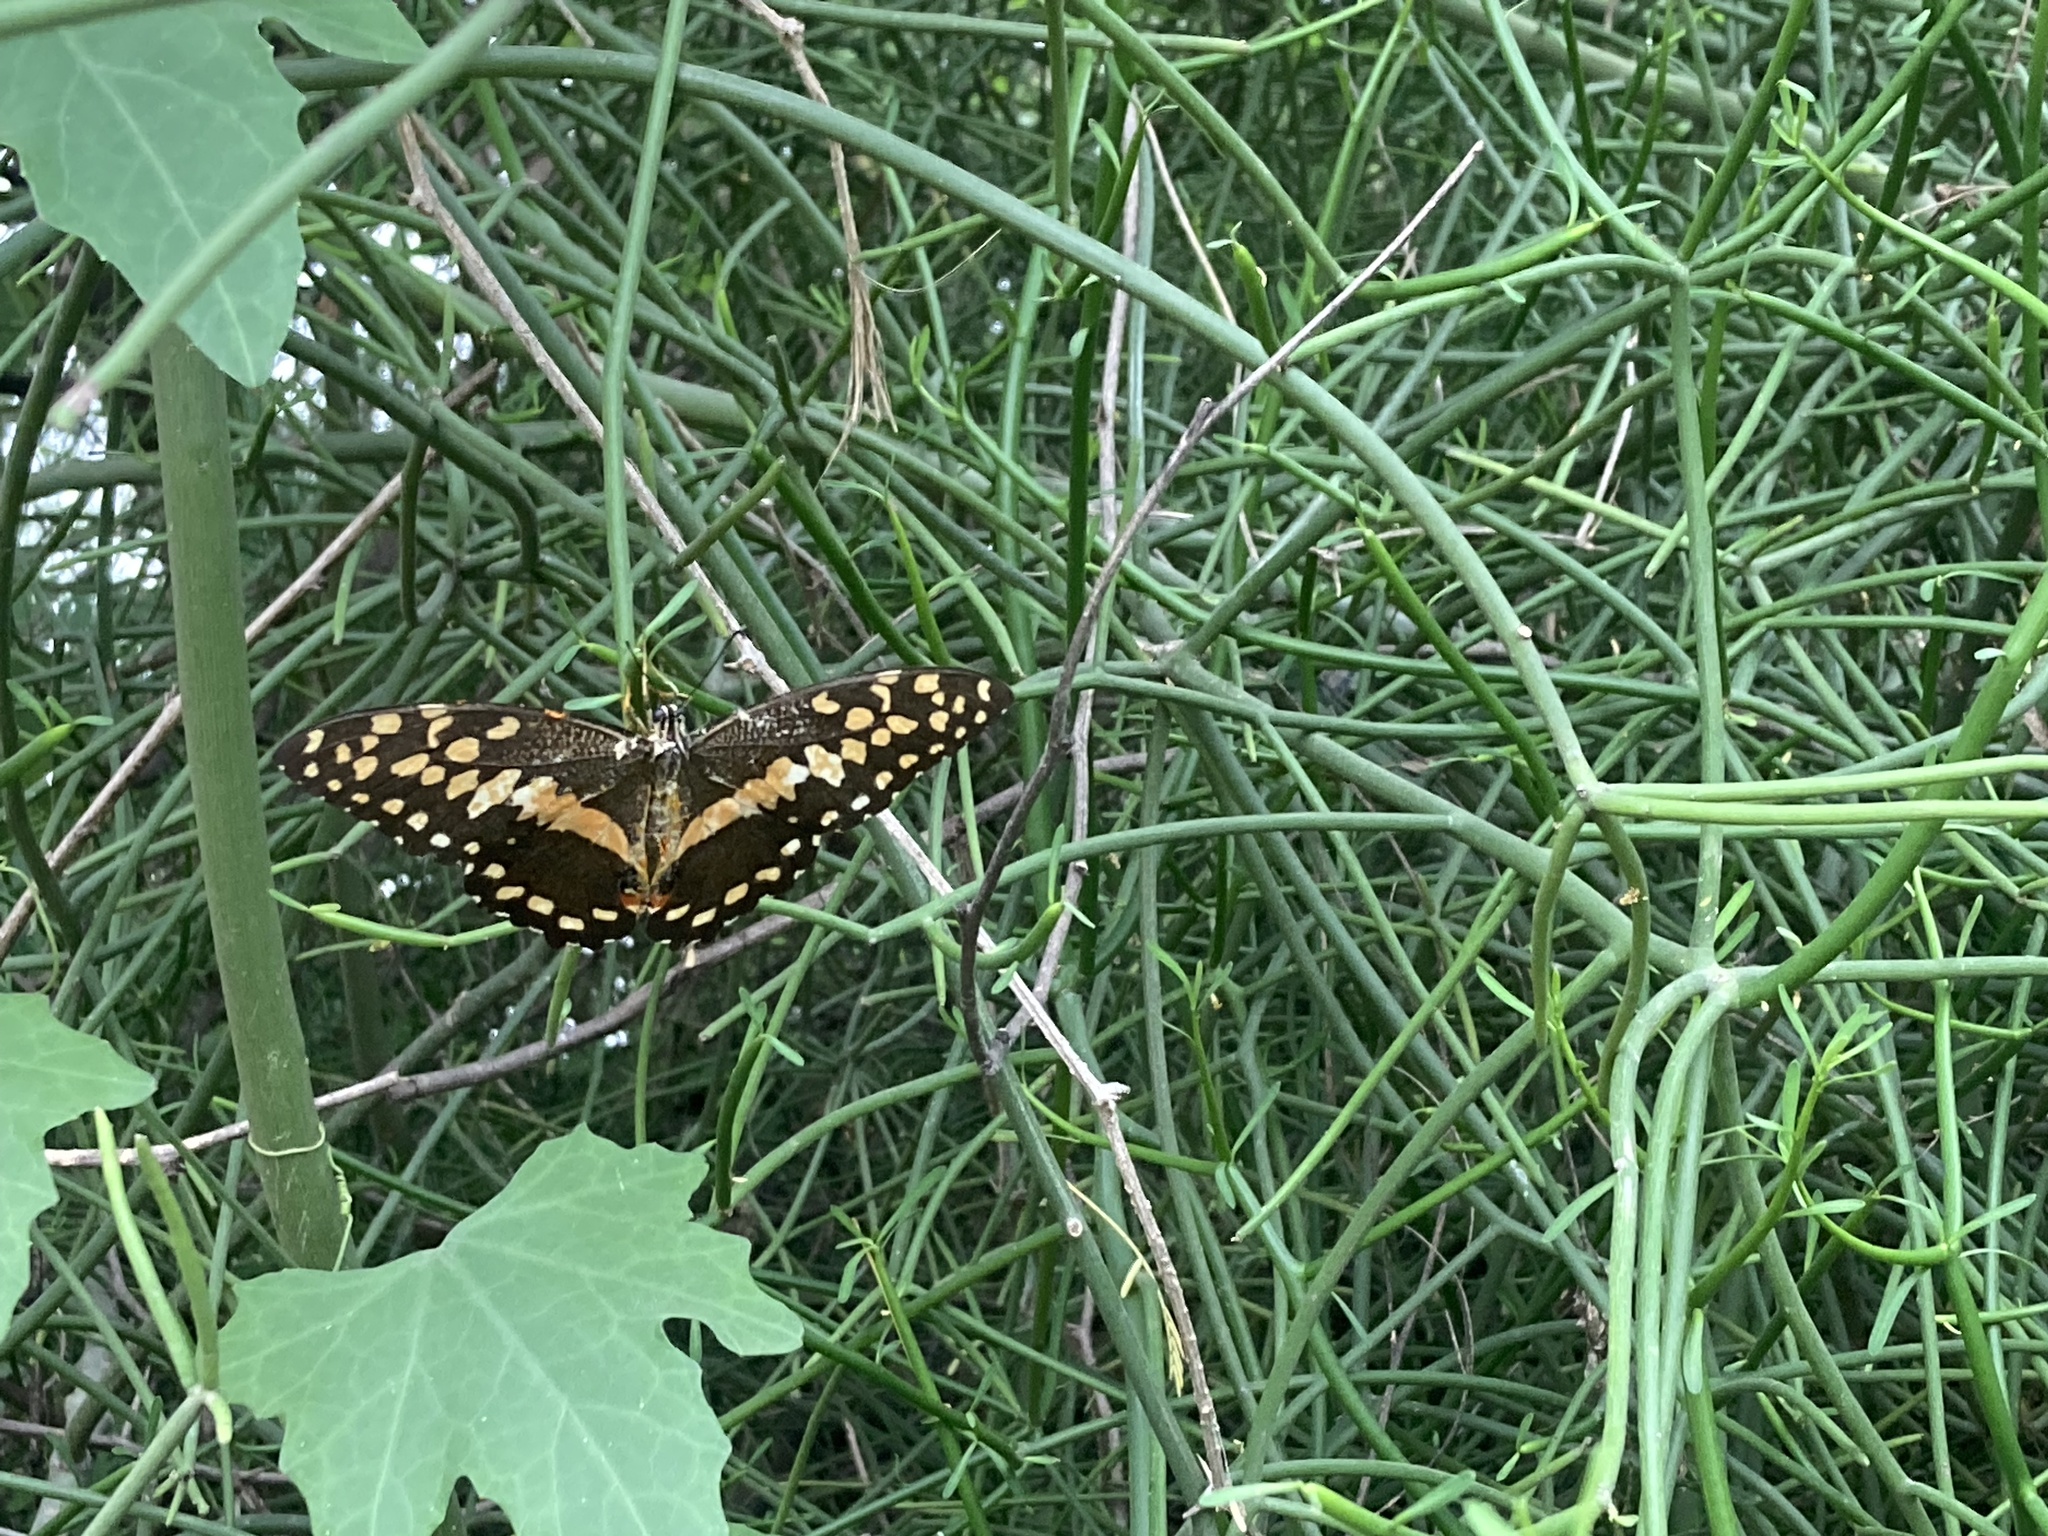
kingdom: Animalia
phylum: Arthropoda
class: Insecta
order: Lepidoptera
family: Papilionidae
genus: Papilio
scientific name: Papilio demodocus
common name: Christmas butterfly
